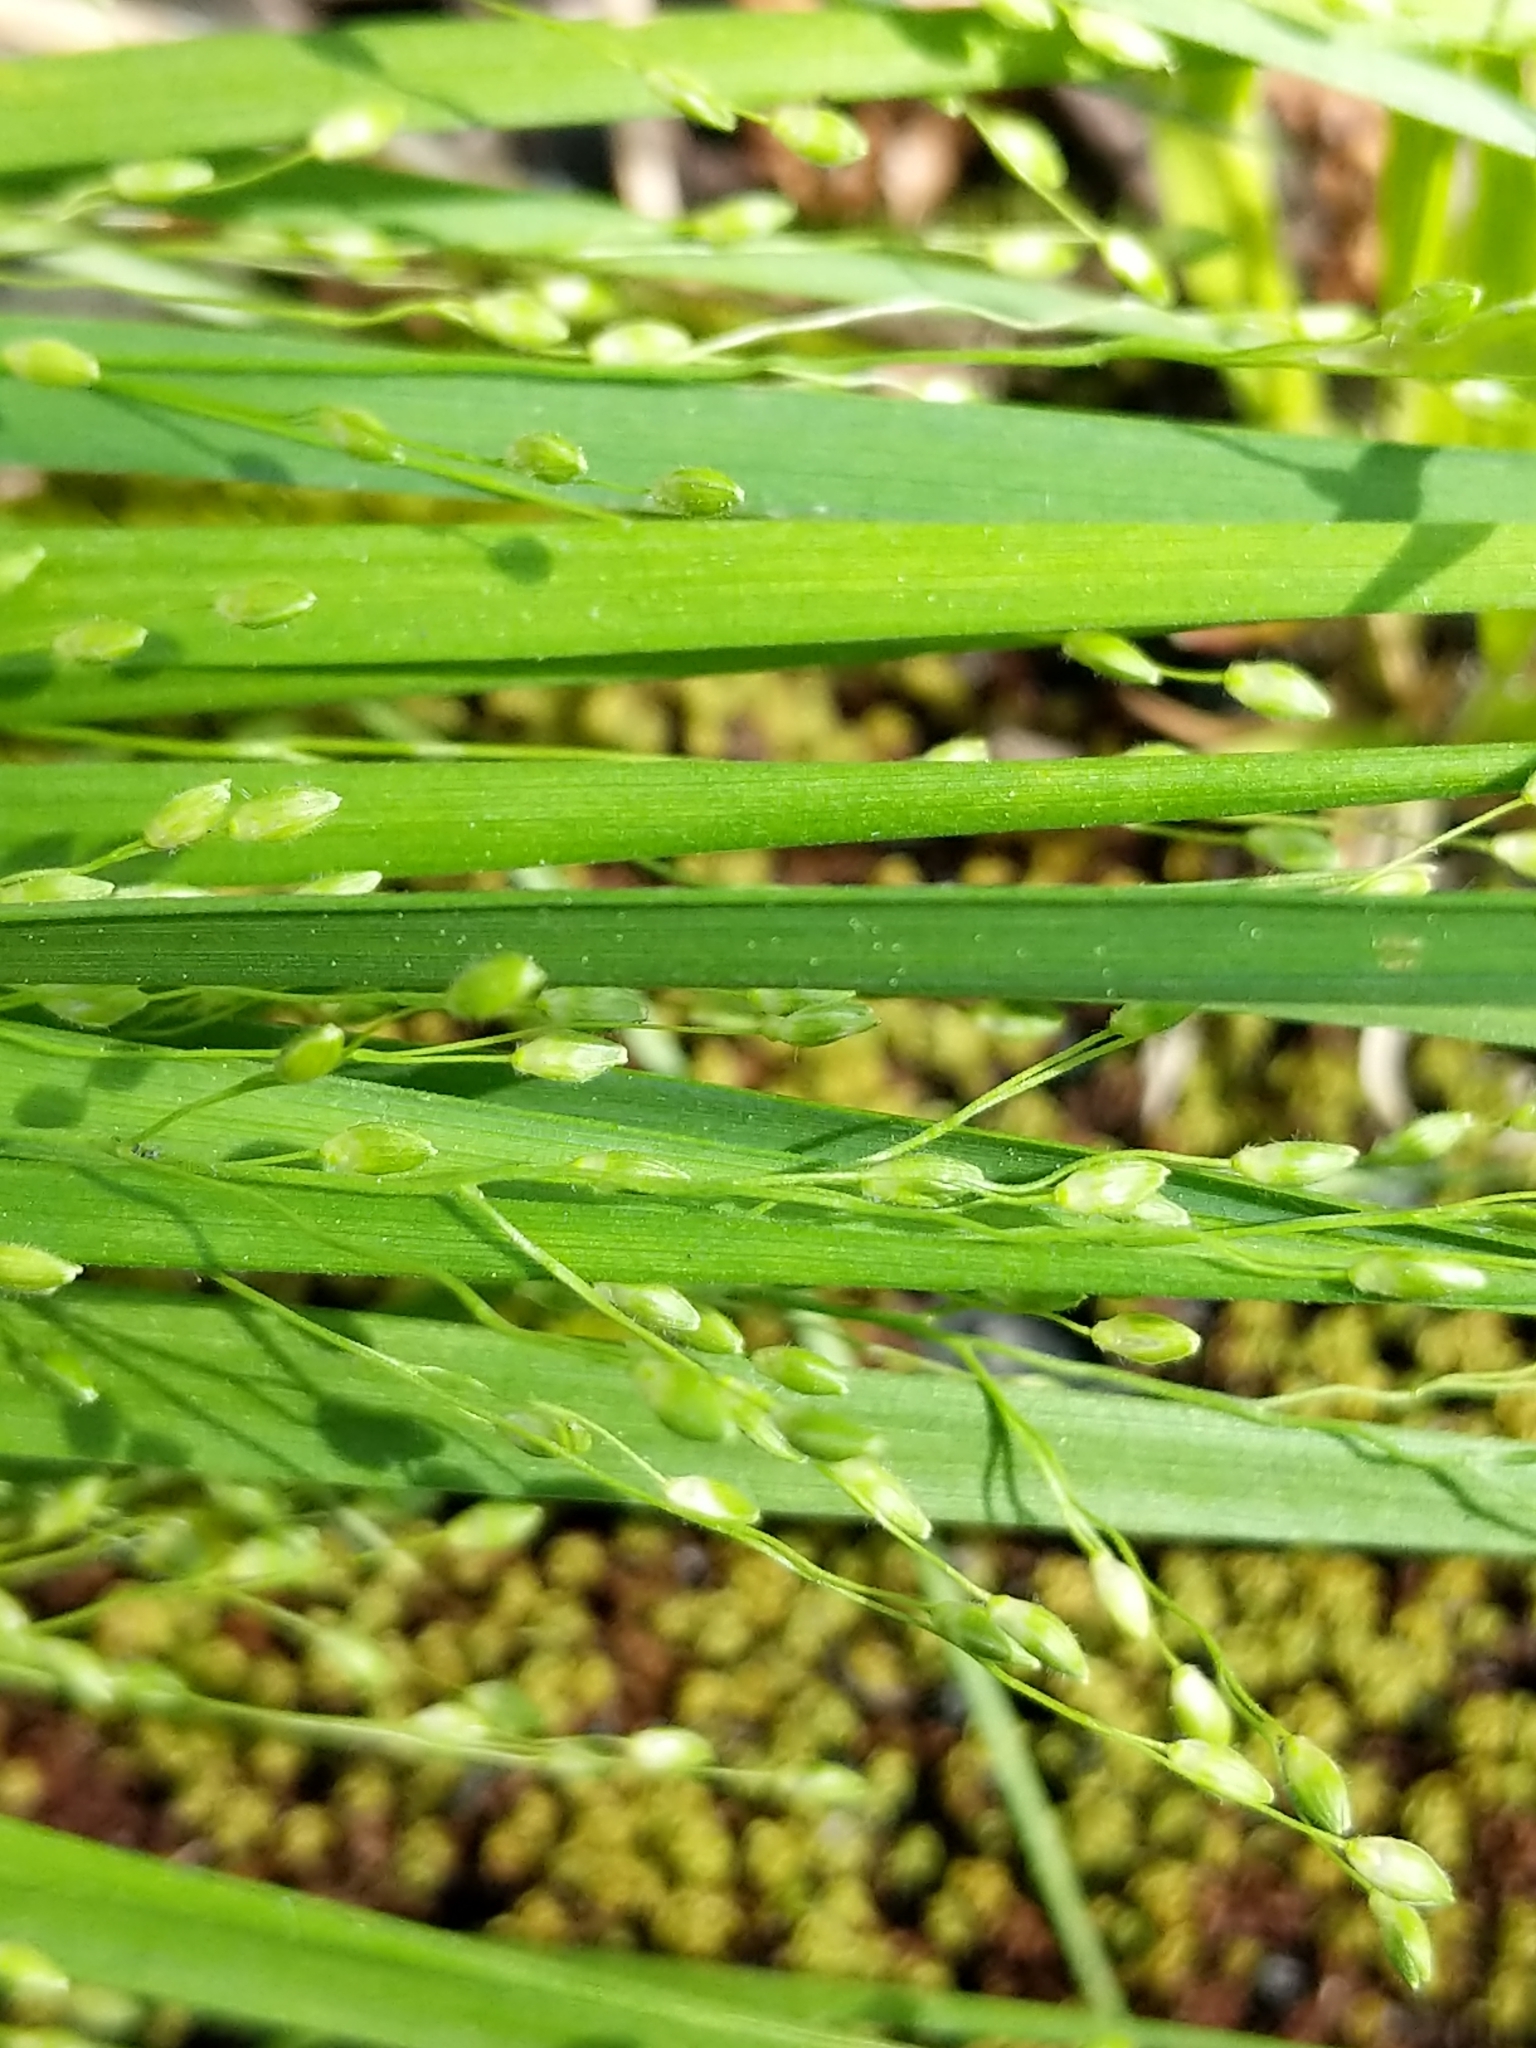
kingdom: Plantae
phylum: Tracheophyta
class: Liliopsida
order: Poales
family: Poaceae
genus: Dichanthelium
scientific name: Dichanthelium depauperatum
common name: Depauperate panicgrass
